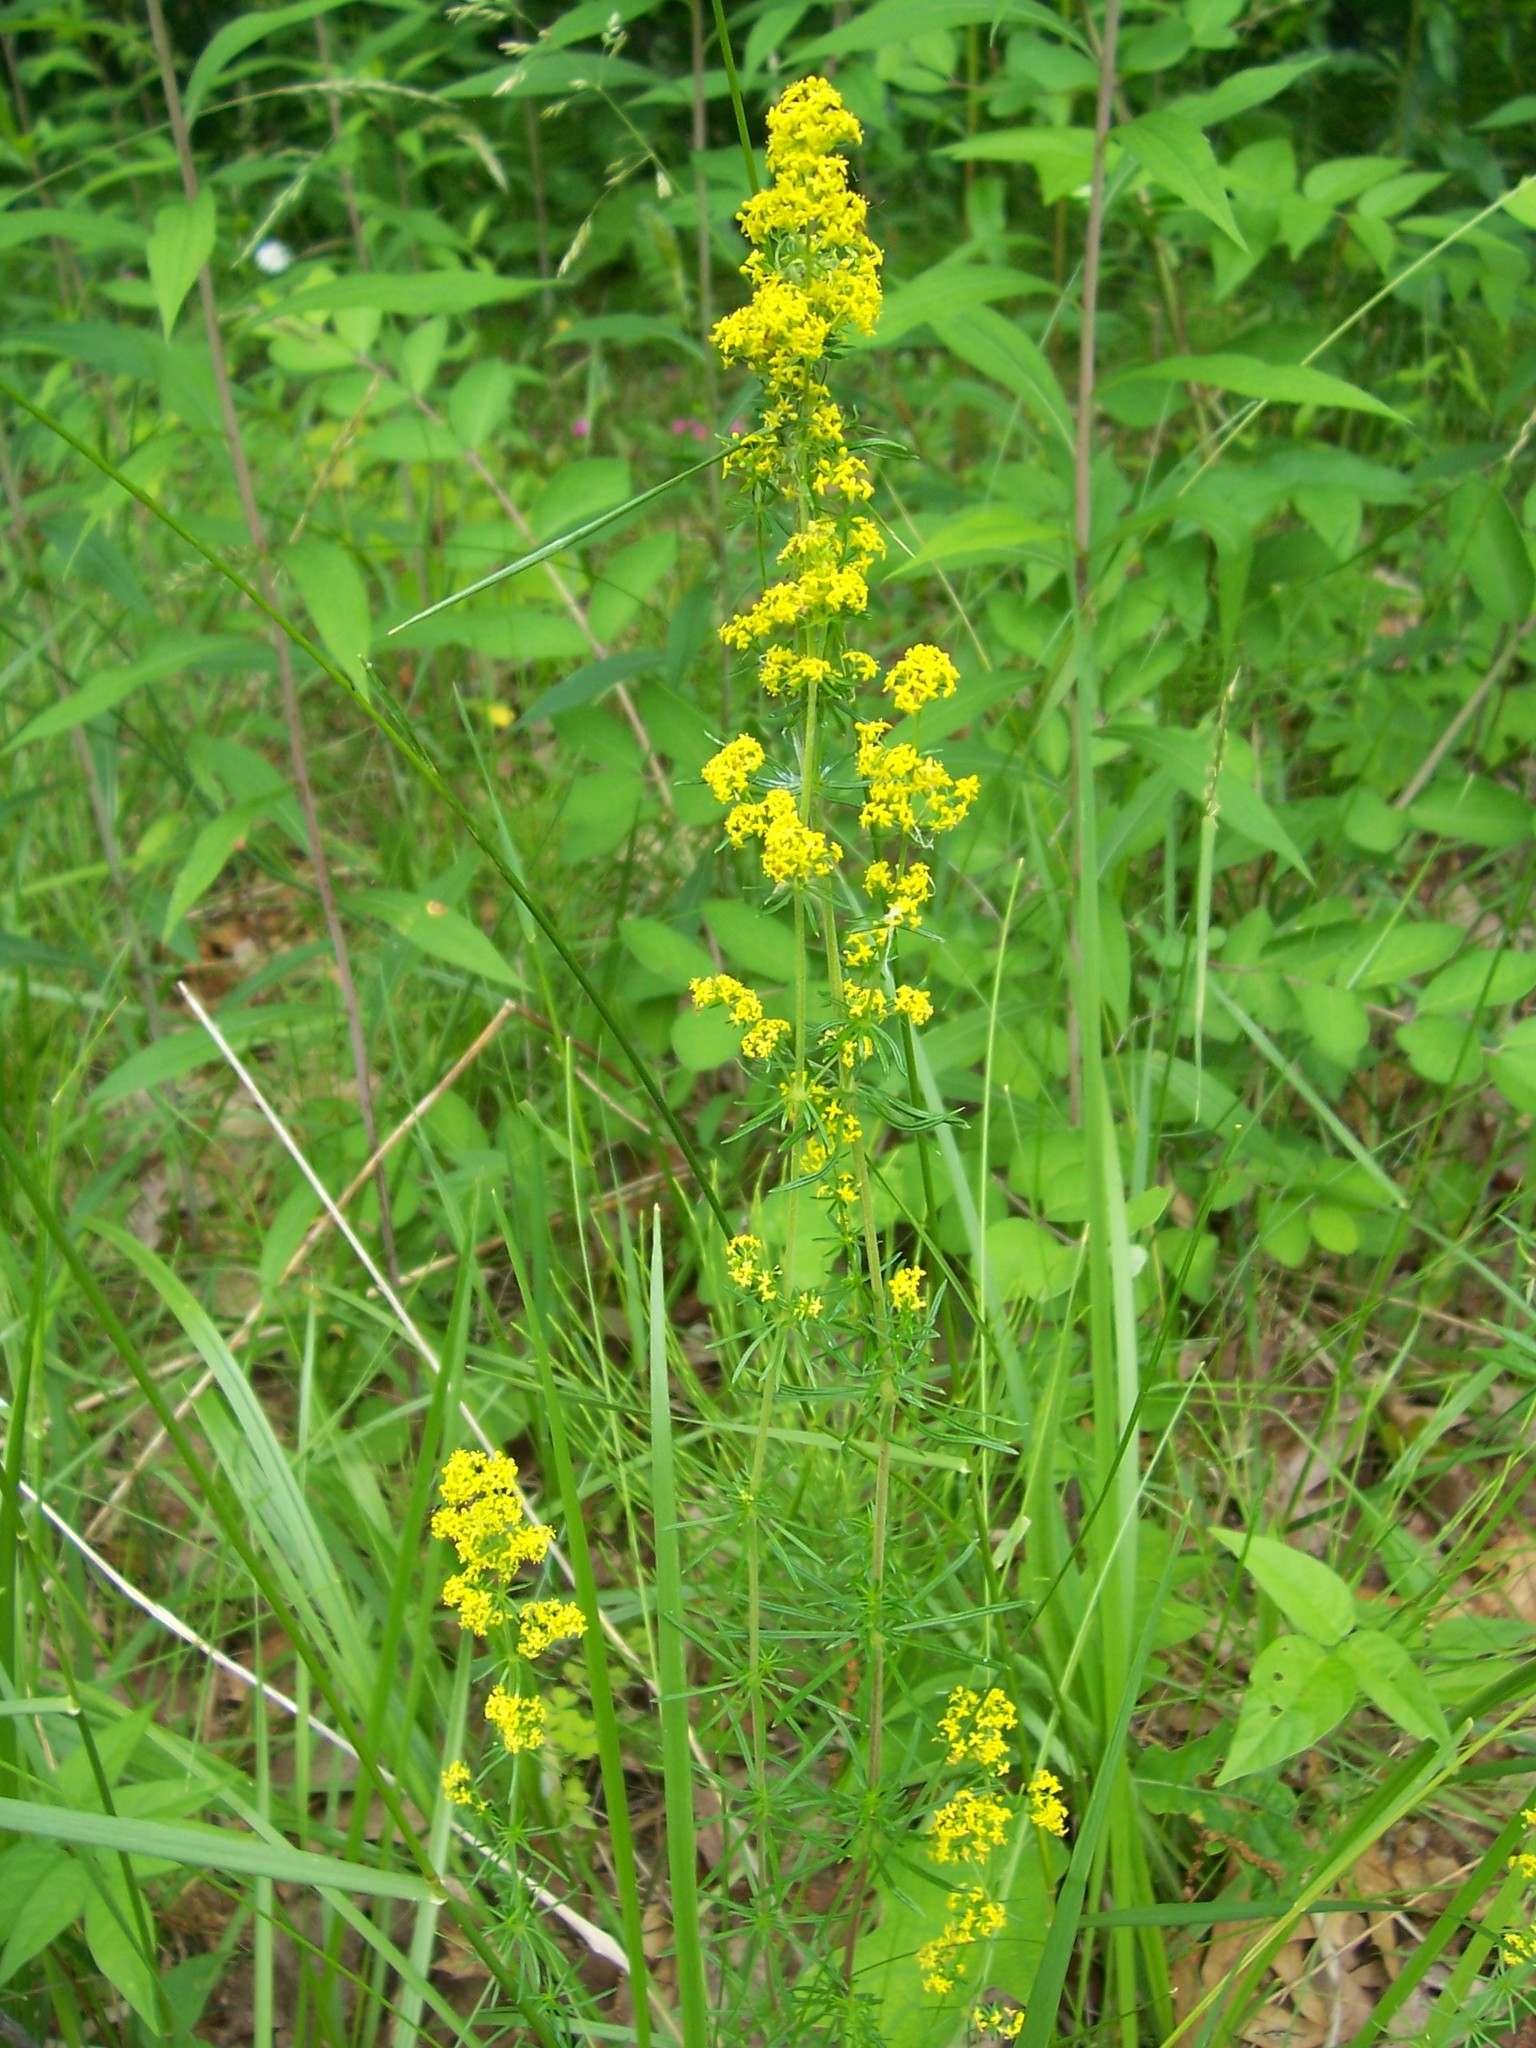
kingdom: Plantae
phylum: Tracheophyta
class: Magnoliopsida
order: Gentianales
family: Rubiaceae
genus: Galium
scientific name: Galium verum
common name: Lady's bedstraw
